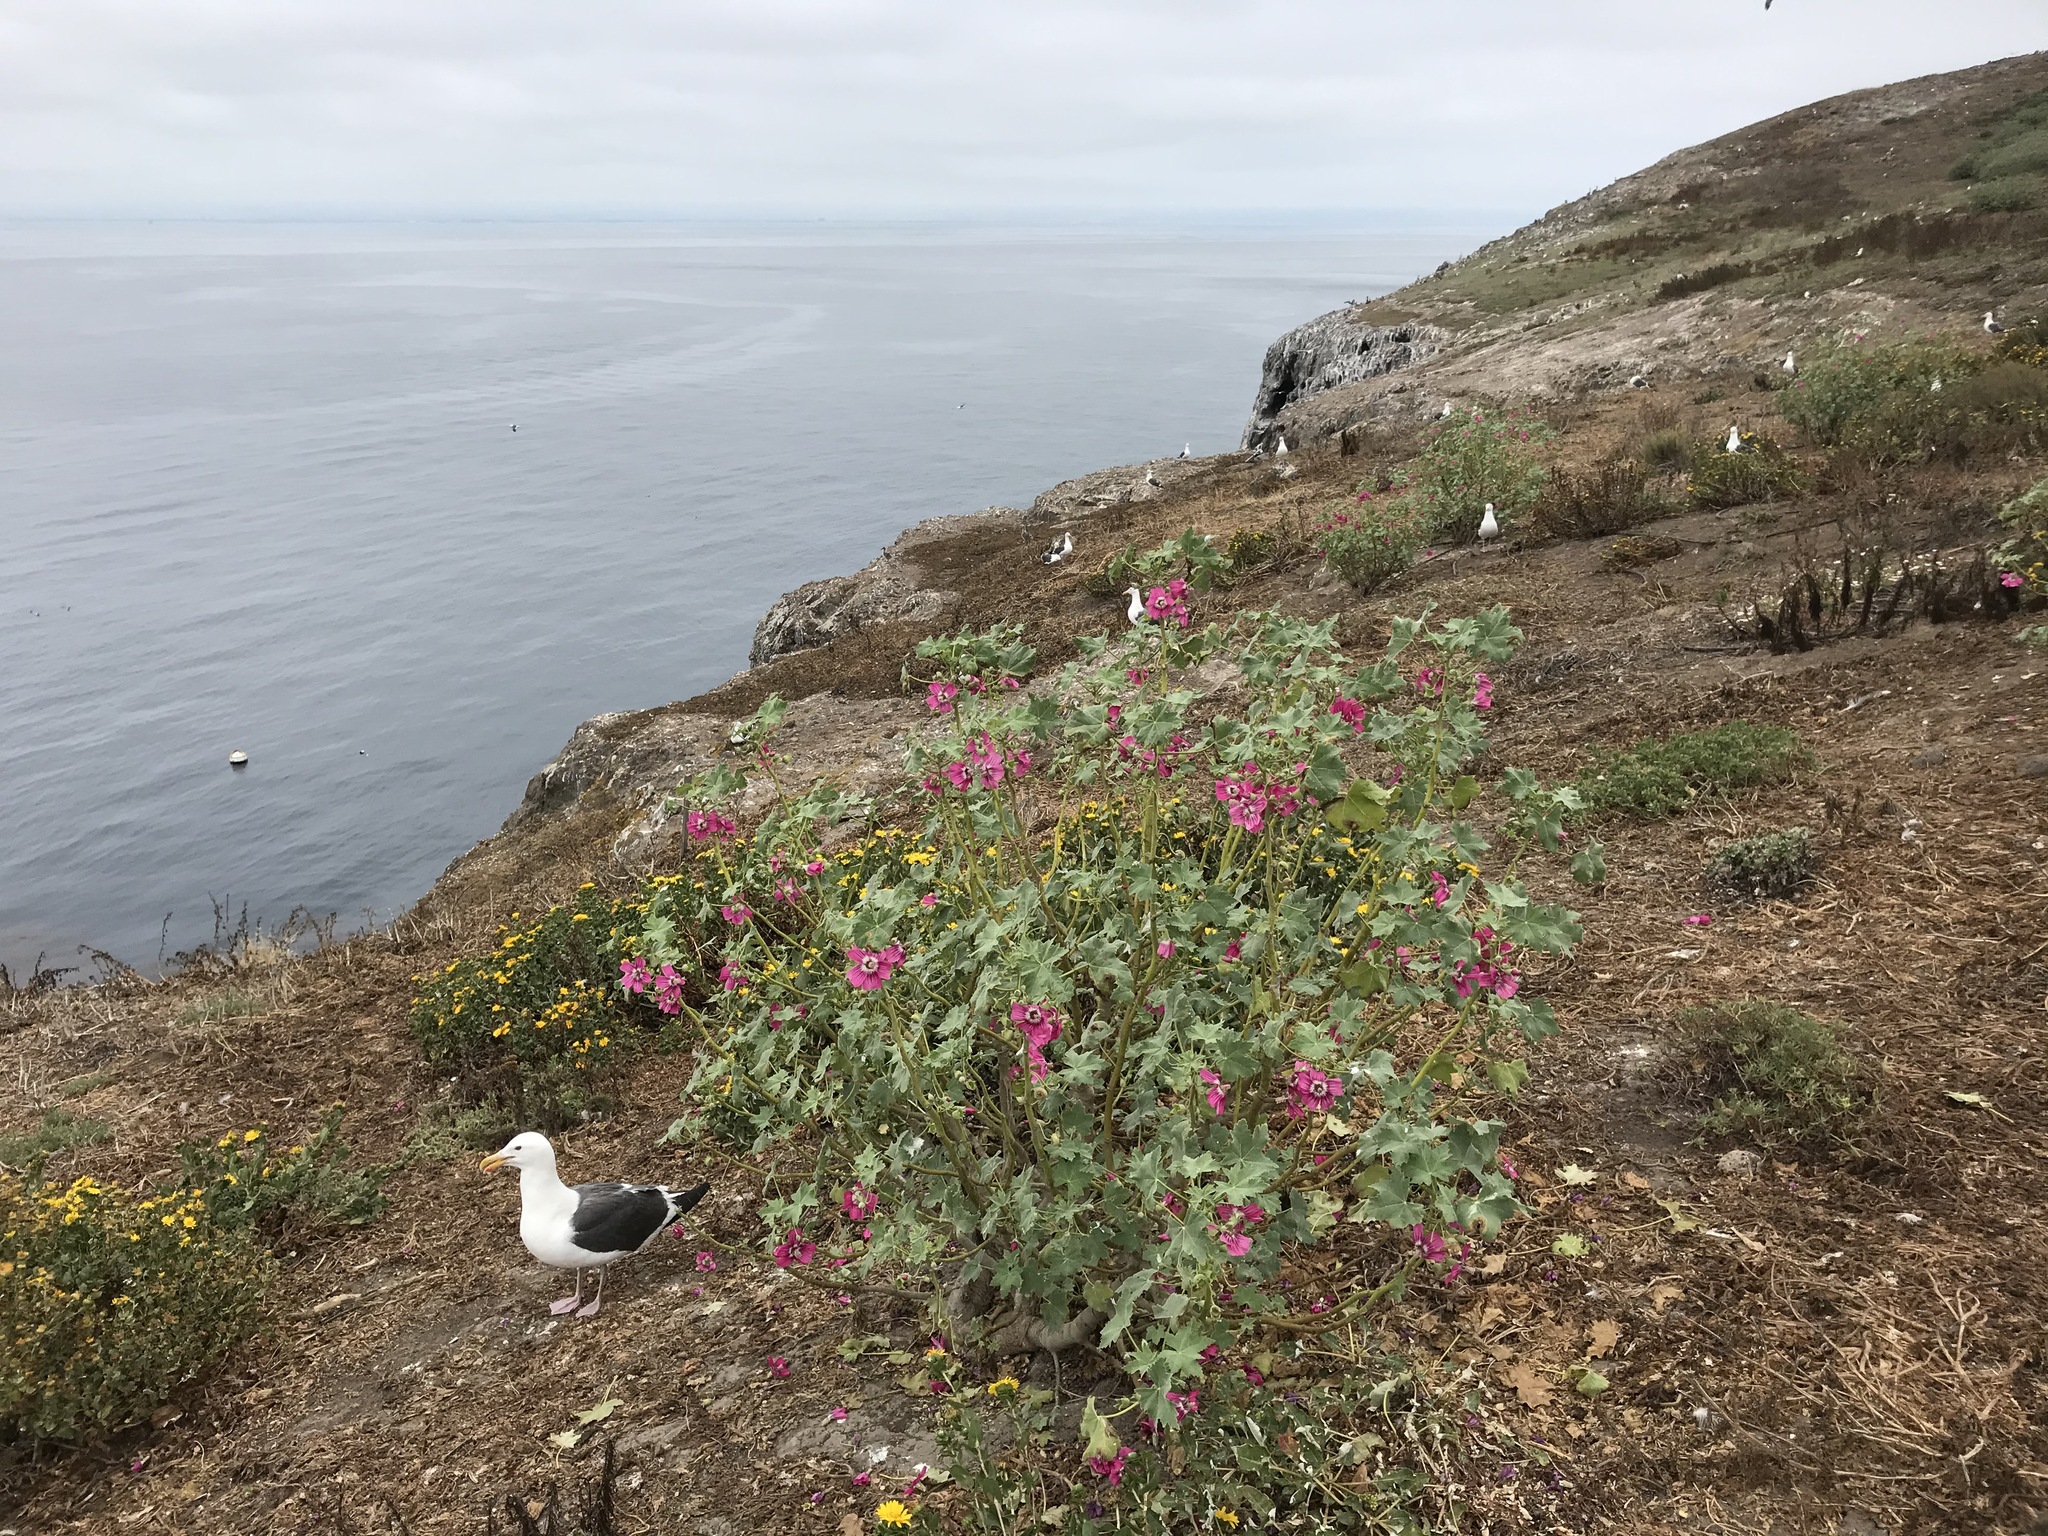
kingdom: Animalia
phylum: Chordata
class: Aves
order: Charadriiformes
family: Laridae
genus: Larus
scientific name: Larus occidentalis
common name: Western gull
